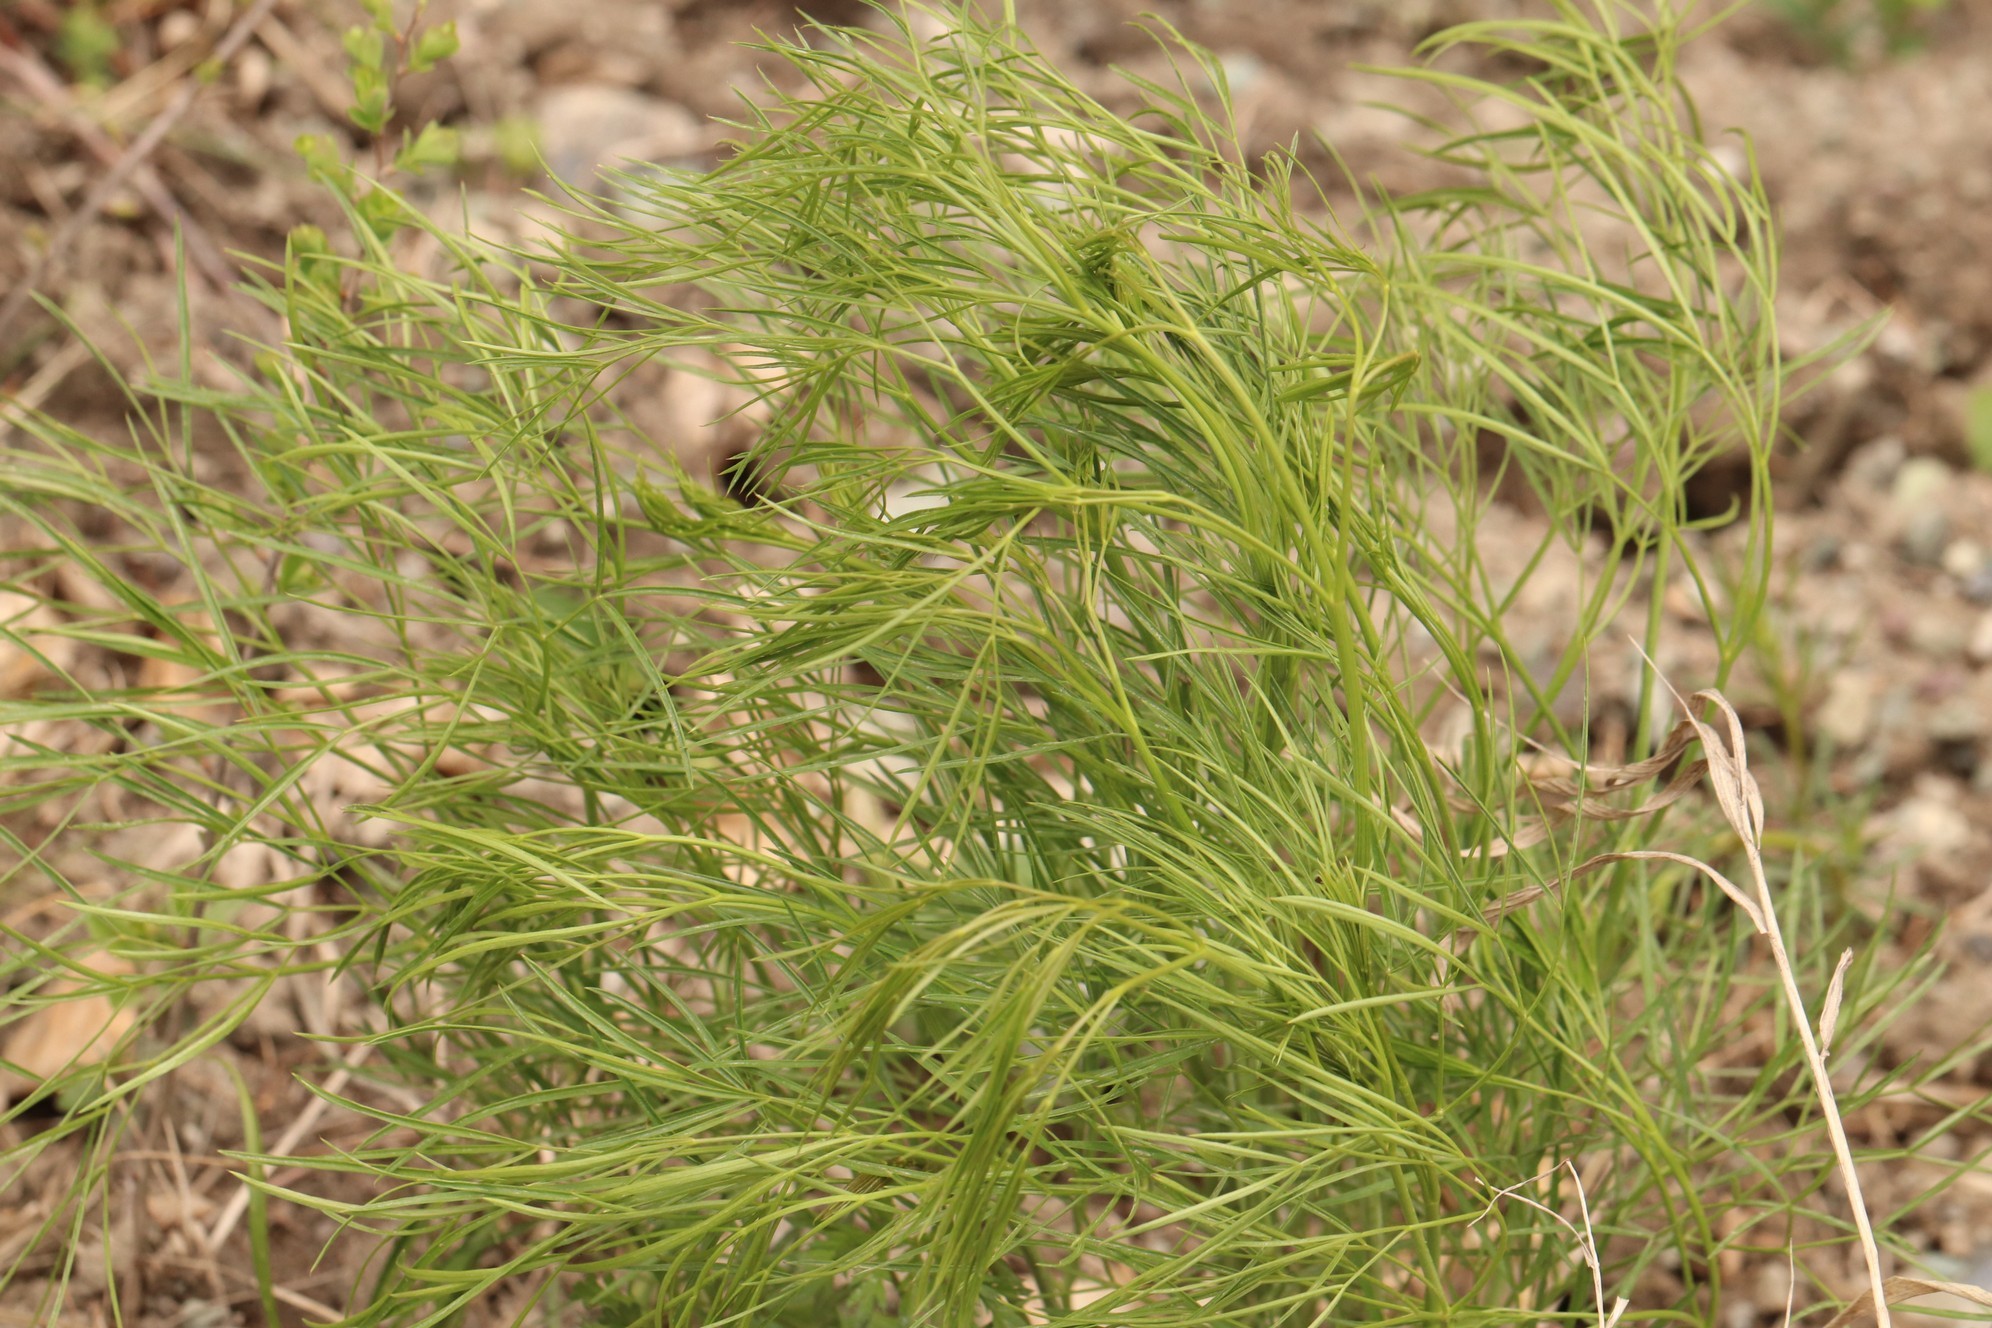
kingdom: Plantae
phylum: Tracheophyta
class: Magnoliopsida
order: Apiales
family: Apiaceae
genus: Peucedanum
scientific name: Peucedanum morisonii
